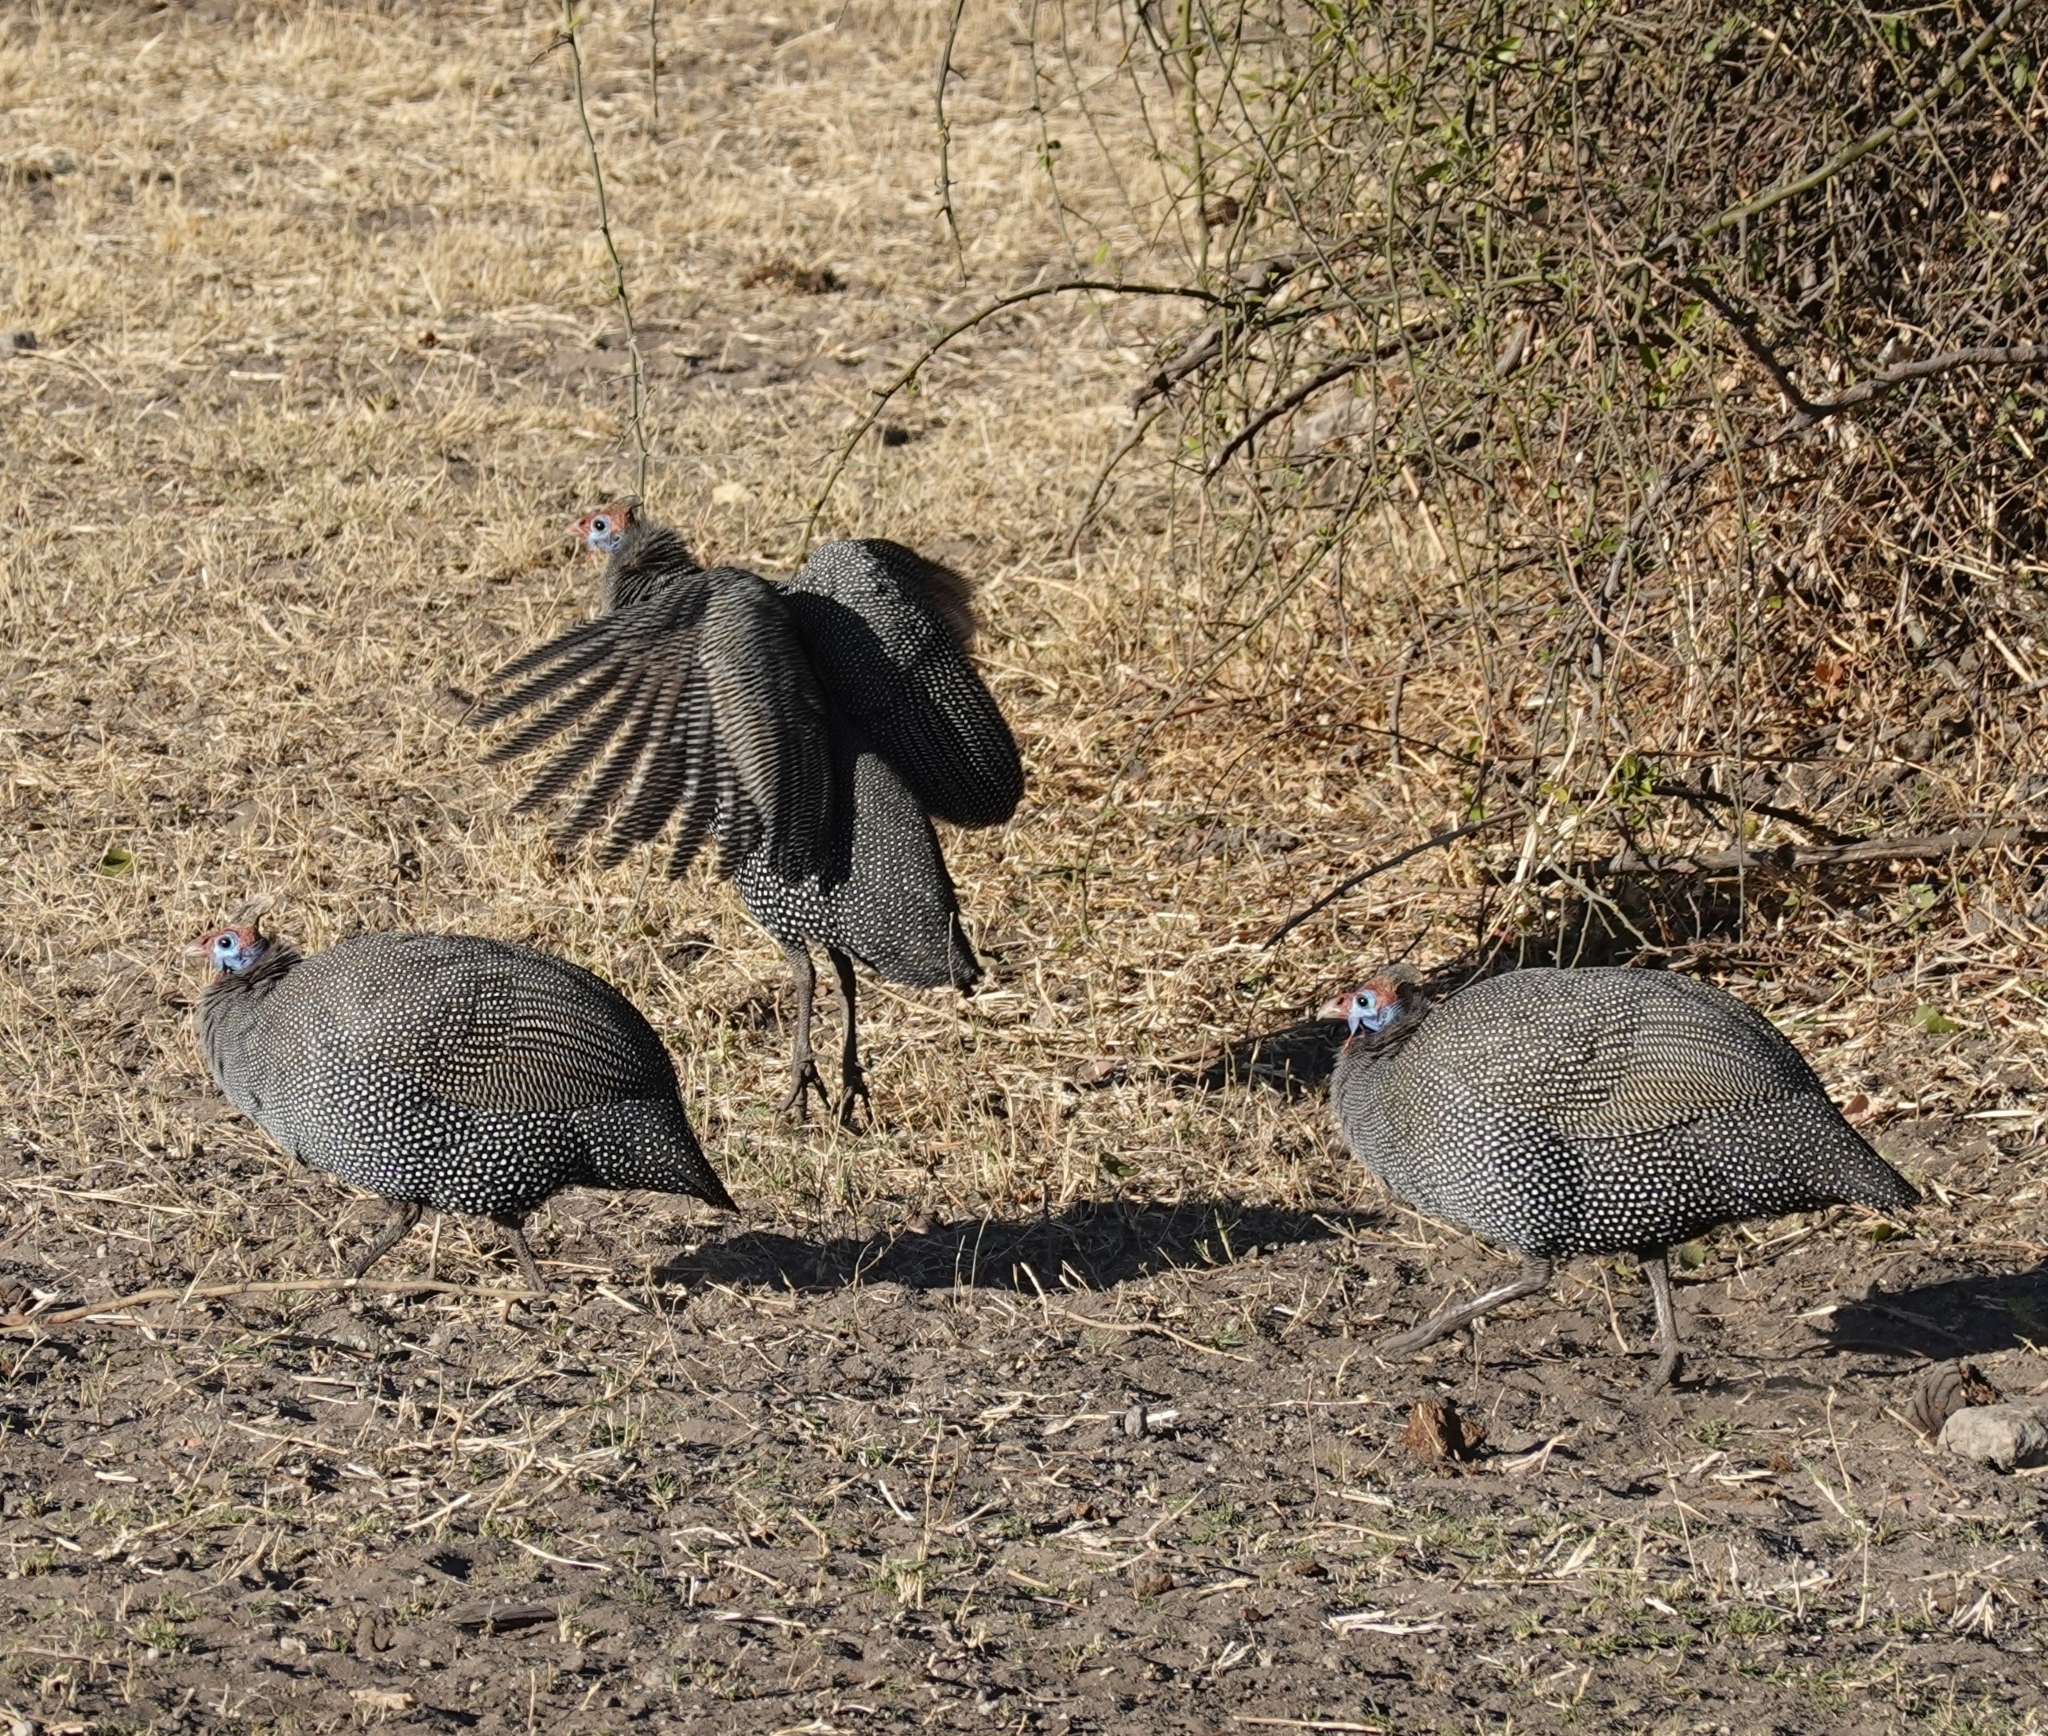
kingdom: Animalia
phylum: Chordata
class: Aves
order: Galliformes
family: Numididae
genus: Numida
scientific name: Numida meleagris
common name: Helmeted guineafowl
